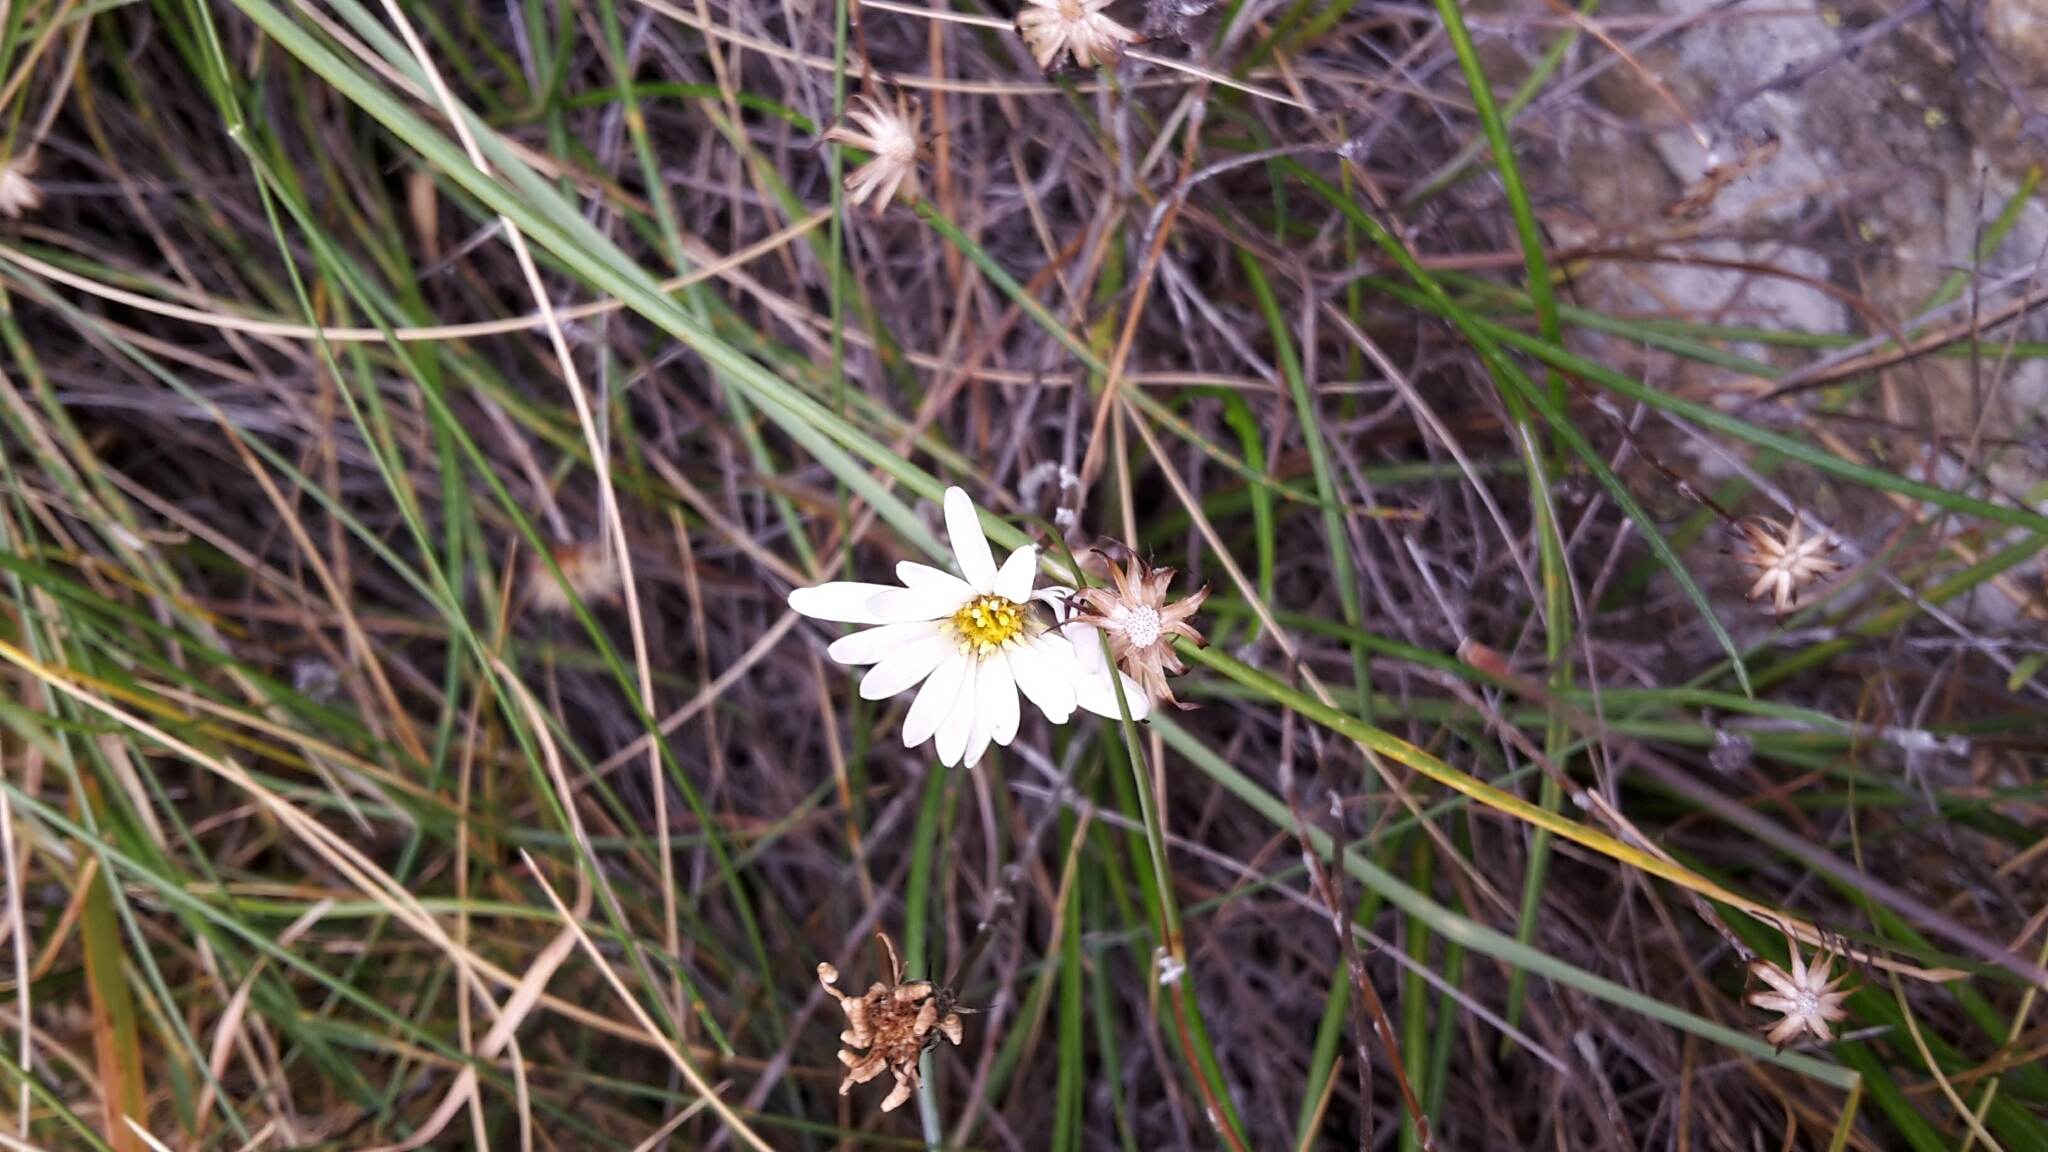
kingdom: Plantae
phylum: Tracheophyta
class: Magnoliopsida
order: Asterales
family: Asteraceae
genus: Celmisia
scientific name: Celmisia gracilenta
